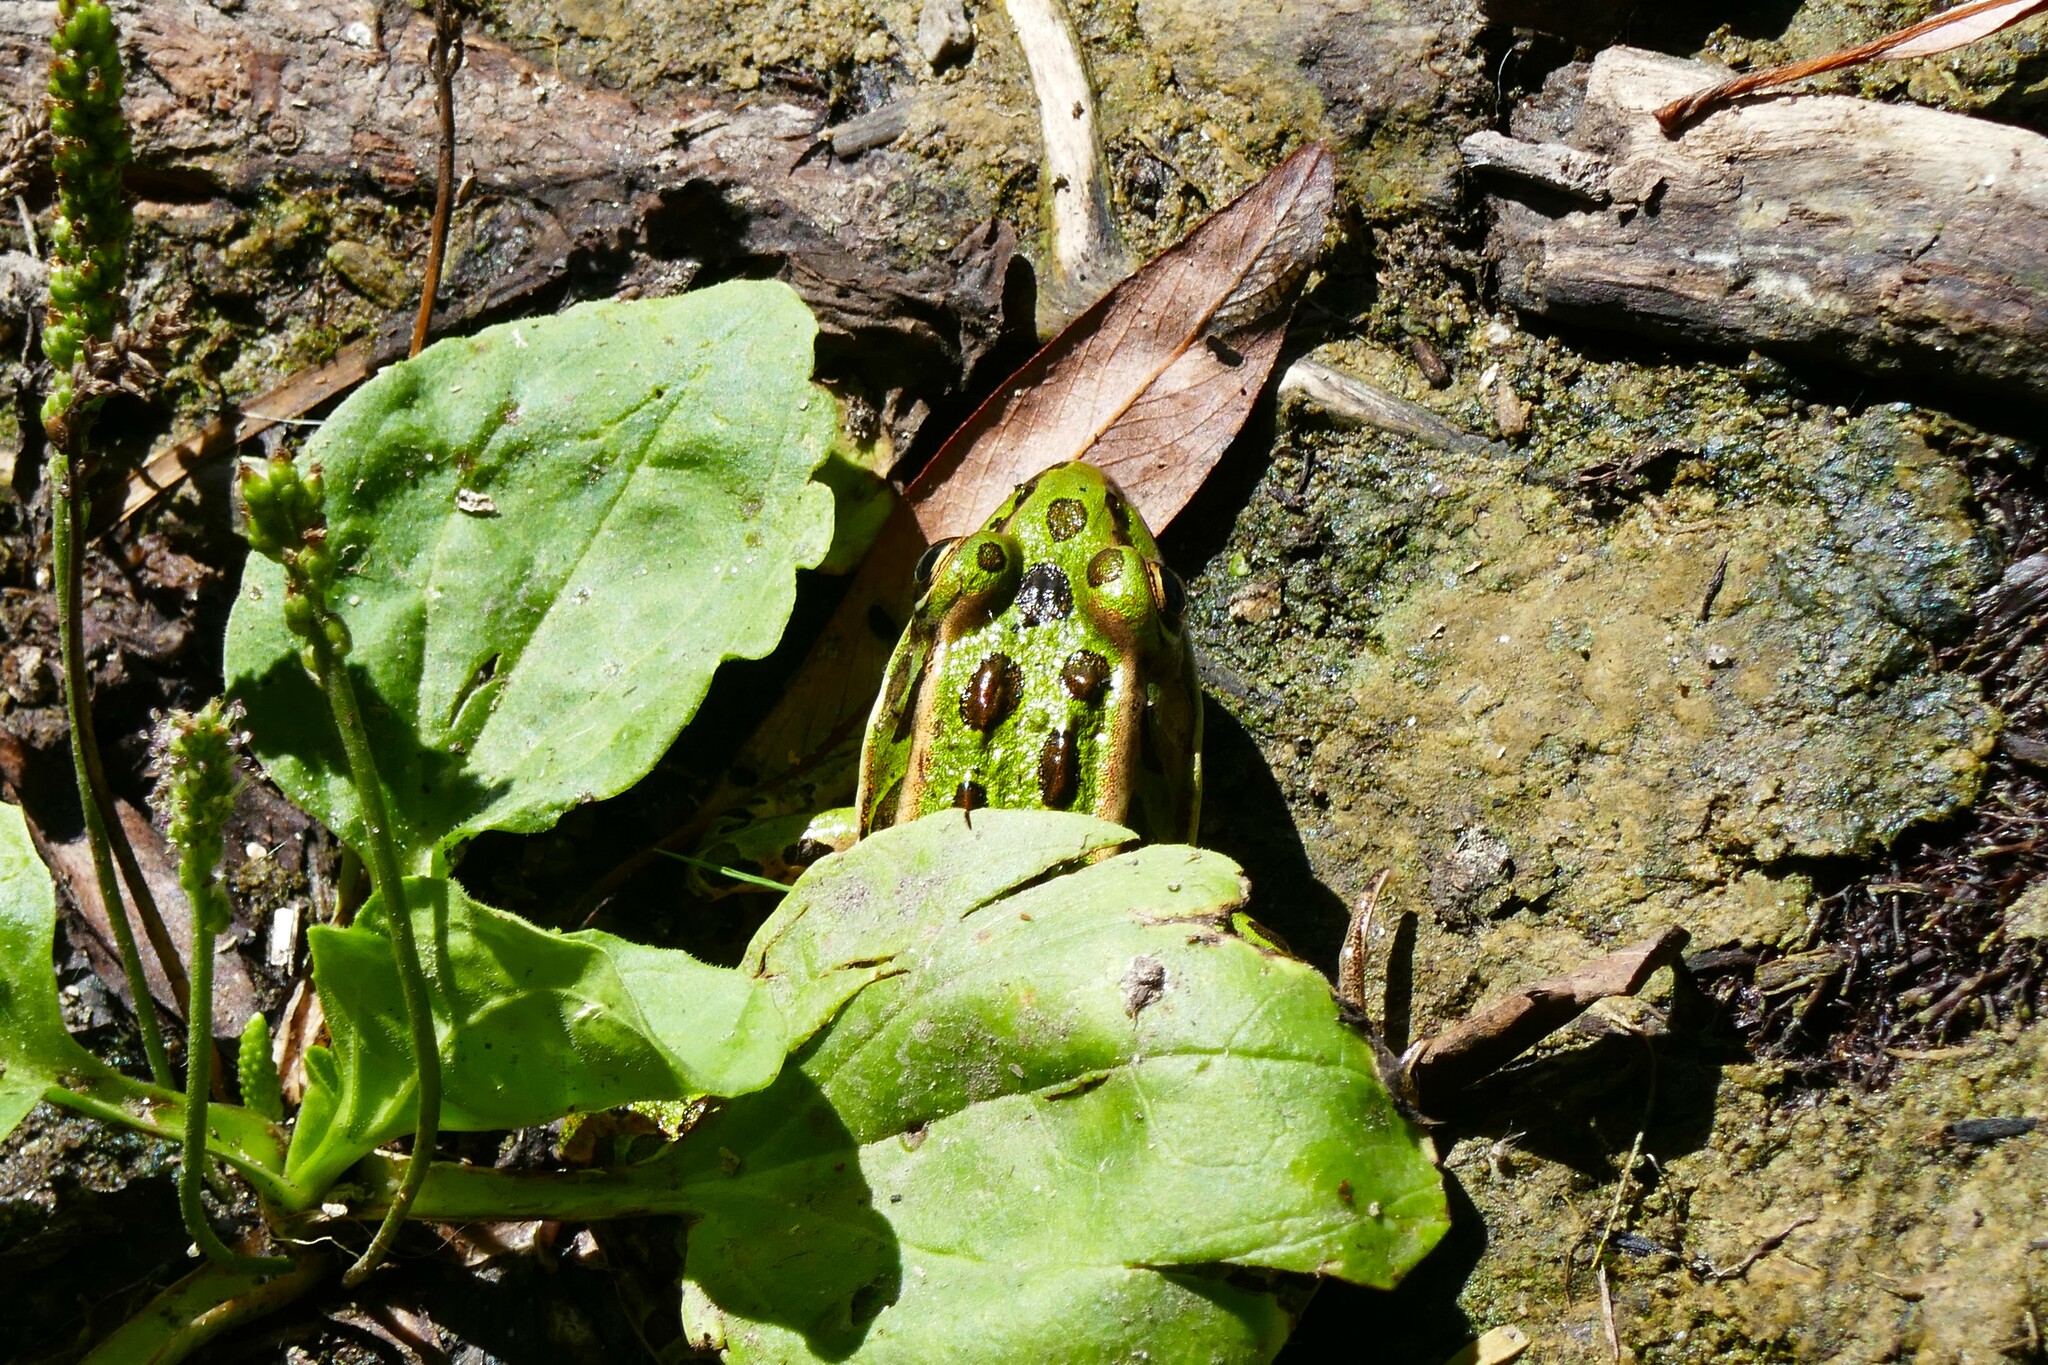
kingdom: Animalia
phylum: Chordata
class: Amphibia
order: Anura
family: Ranidae
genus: Lithobates
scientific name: Lithobates pipiens
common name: Northern leopard frog
